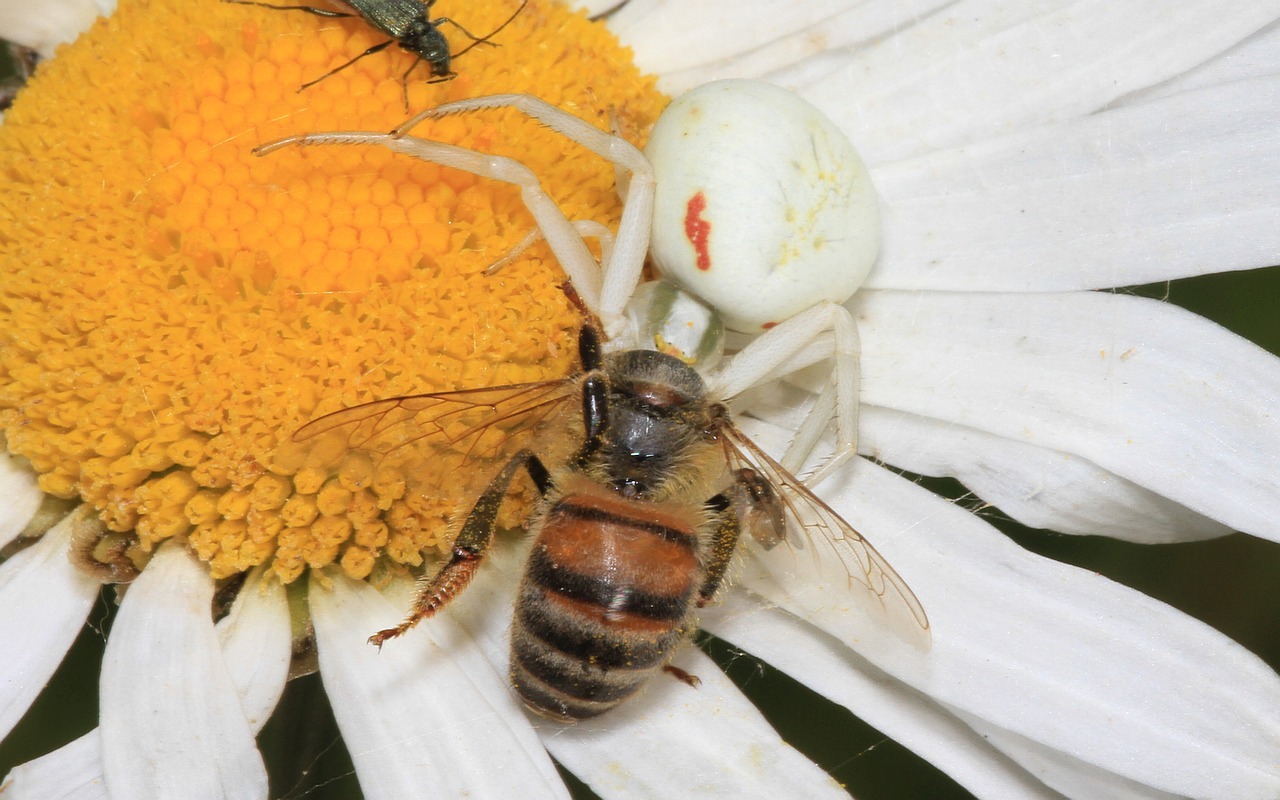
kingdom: Animalia
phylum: Arthropoda
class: Arachnida
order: Araneae
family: Thomisidae
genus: Misumena
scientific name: Misumena vatia
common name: Goldenrod crab spider
